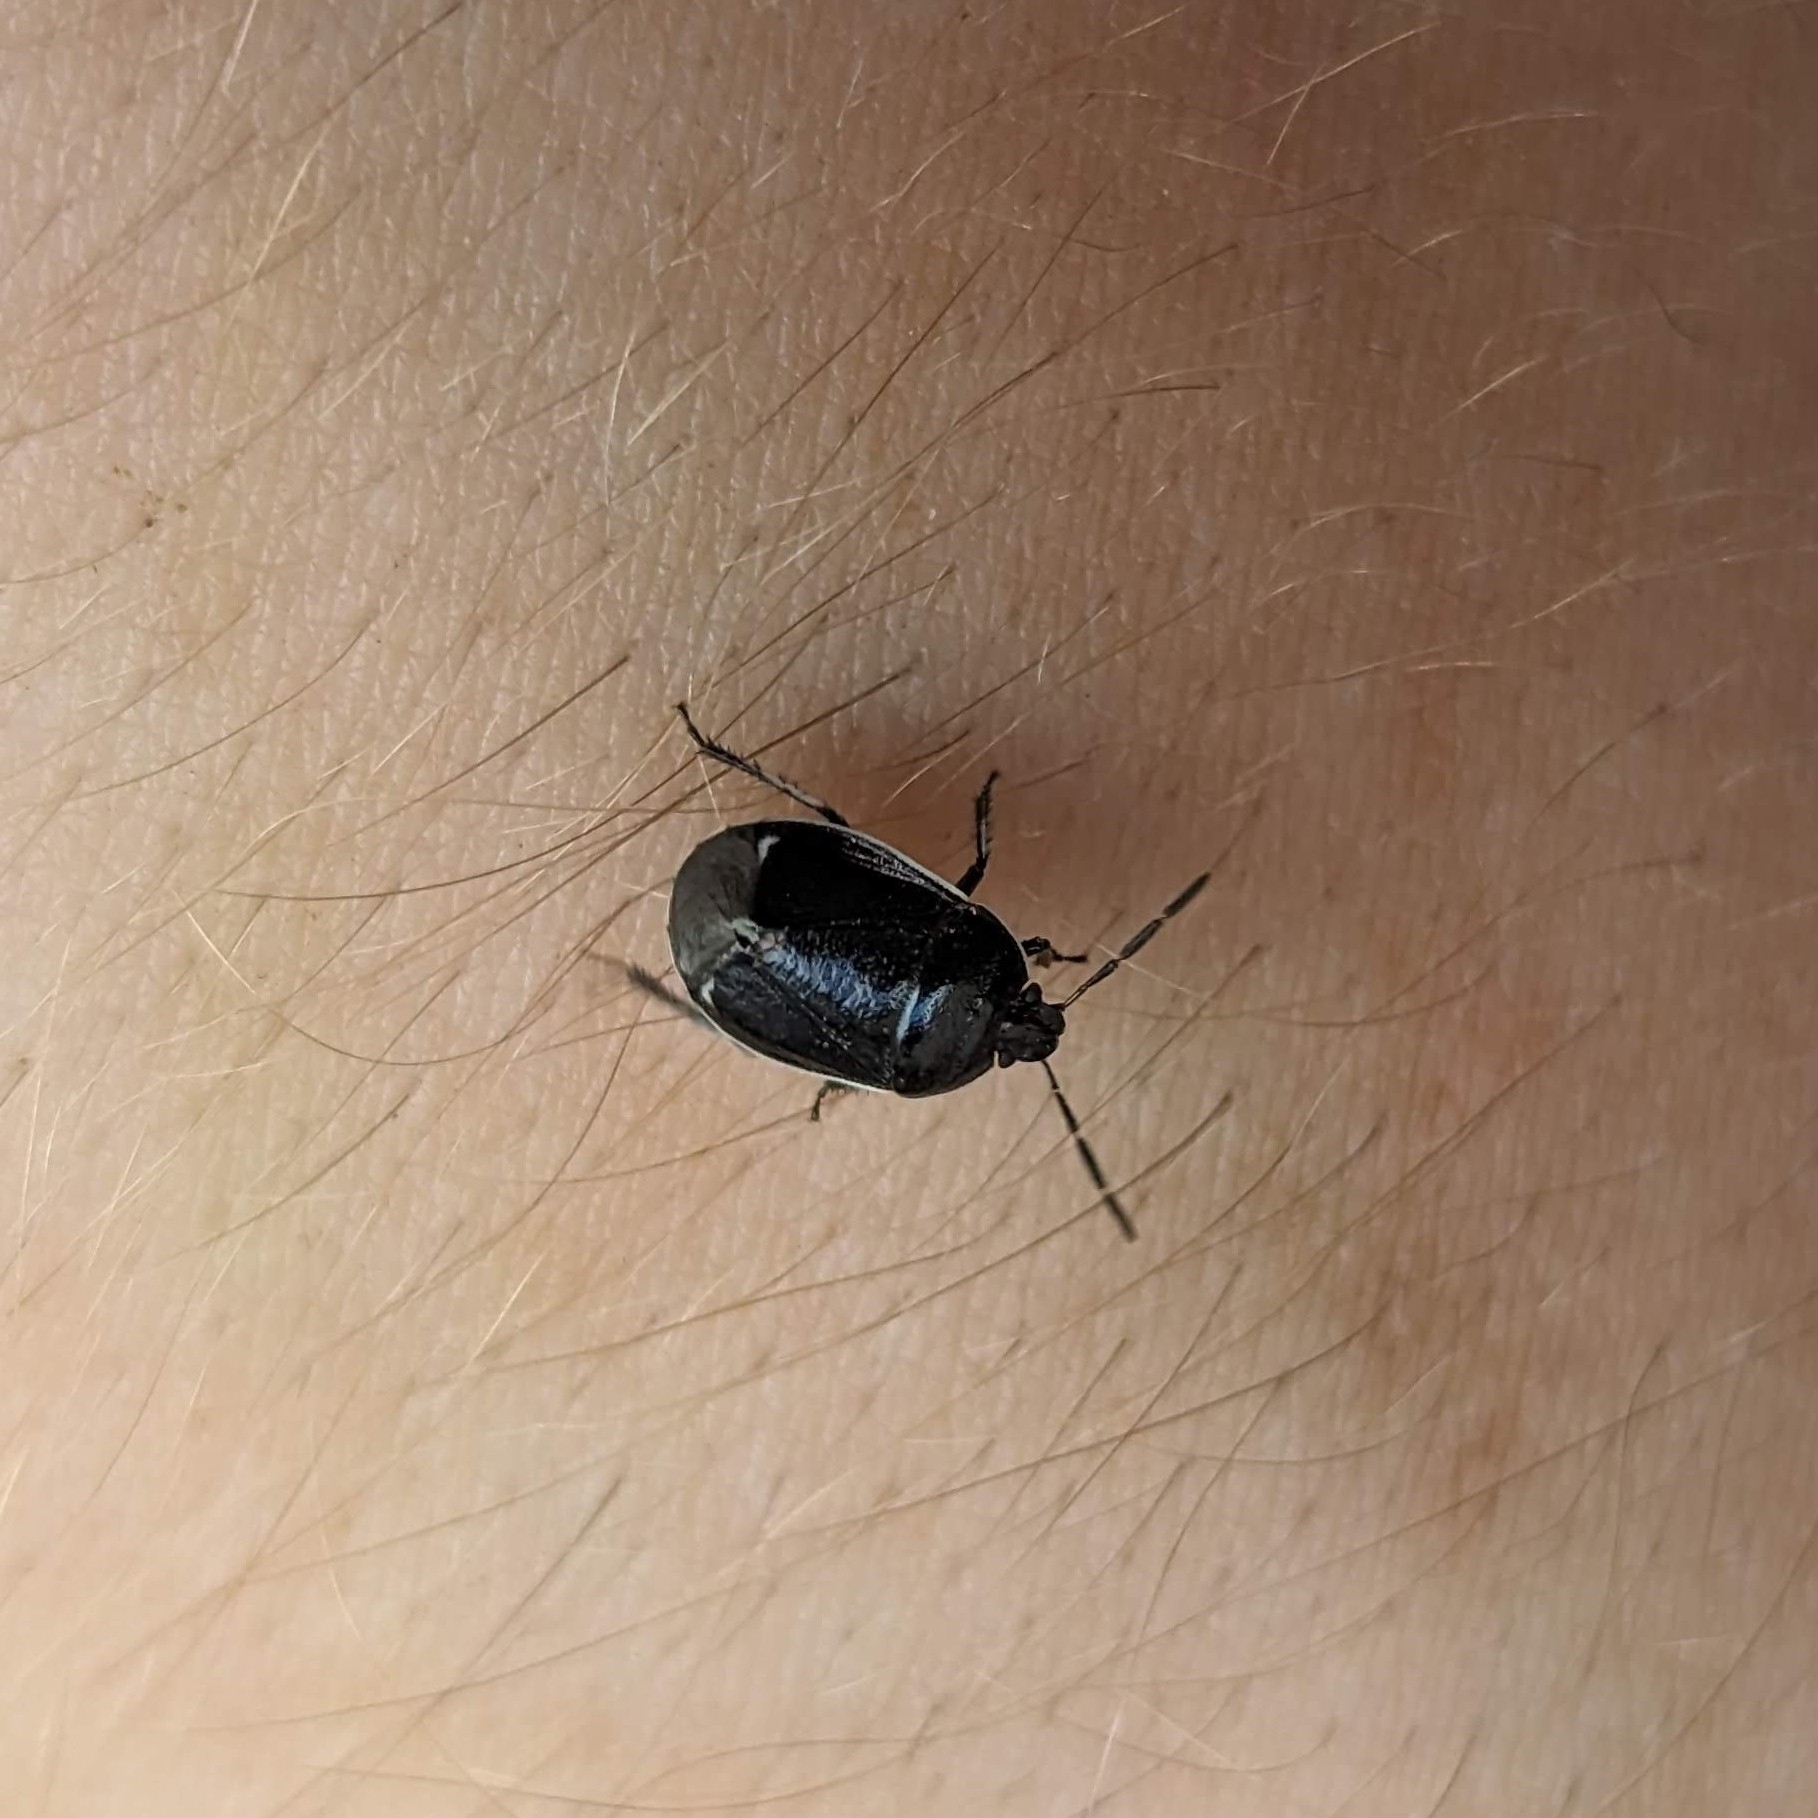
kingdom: Animalia
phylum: Arthropoda
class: Insecta
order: Hemiptera
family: Cydnidae
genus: Sehirus
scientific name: Sehirus cinctus
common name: White-margined burrower bug
